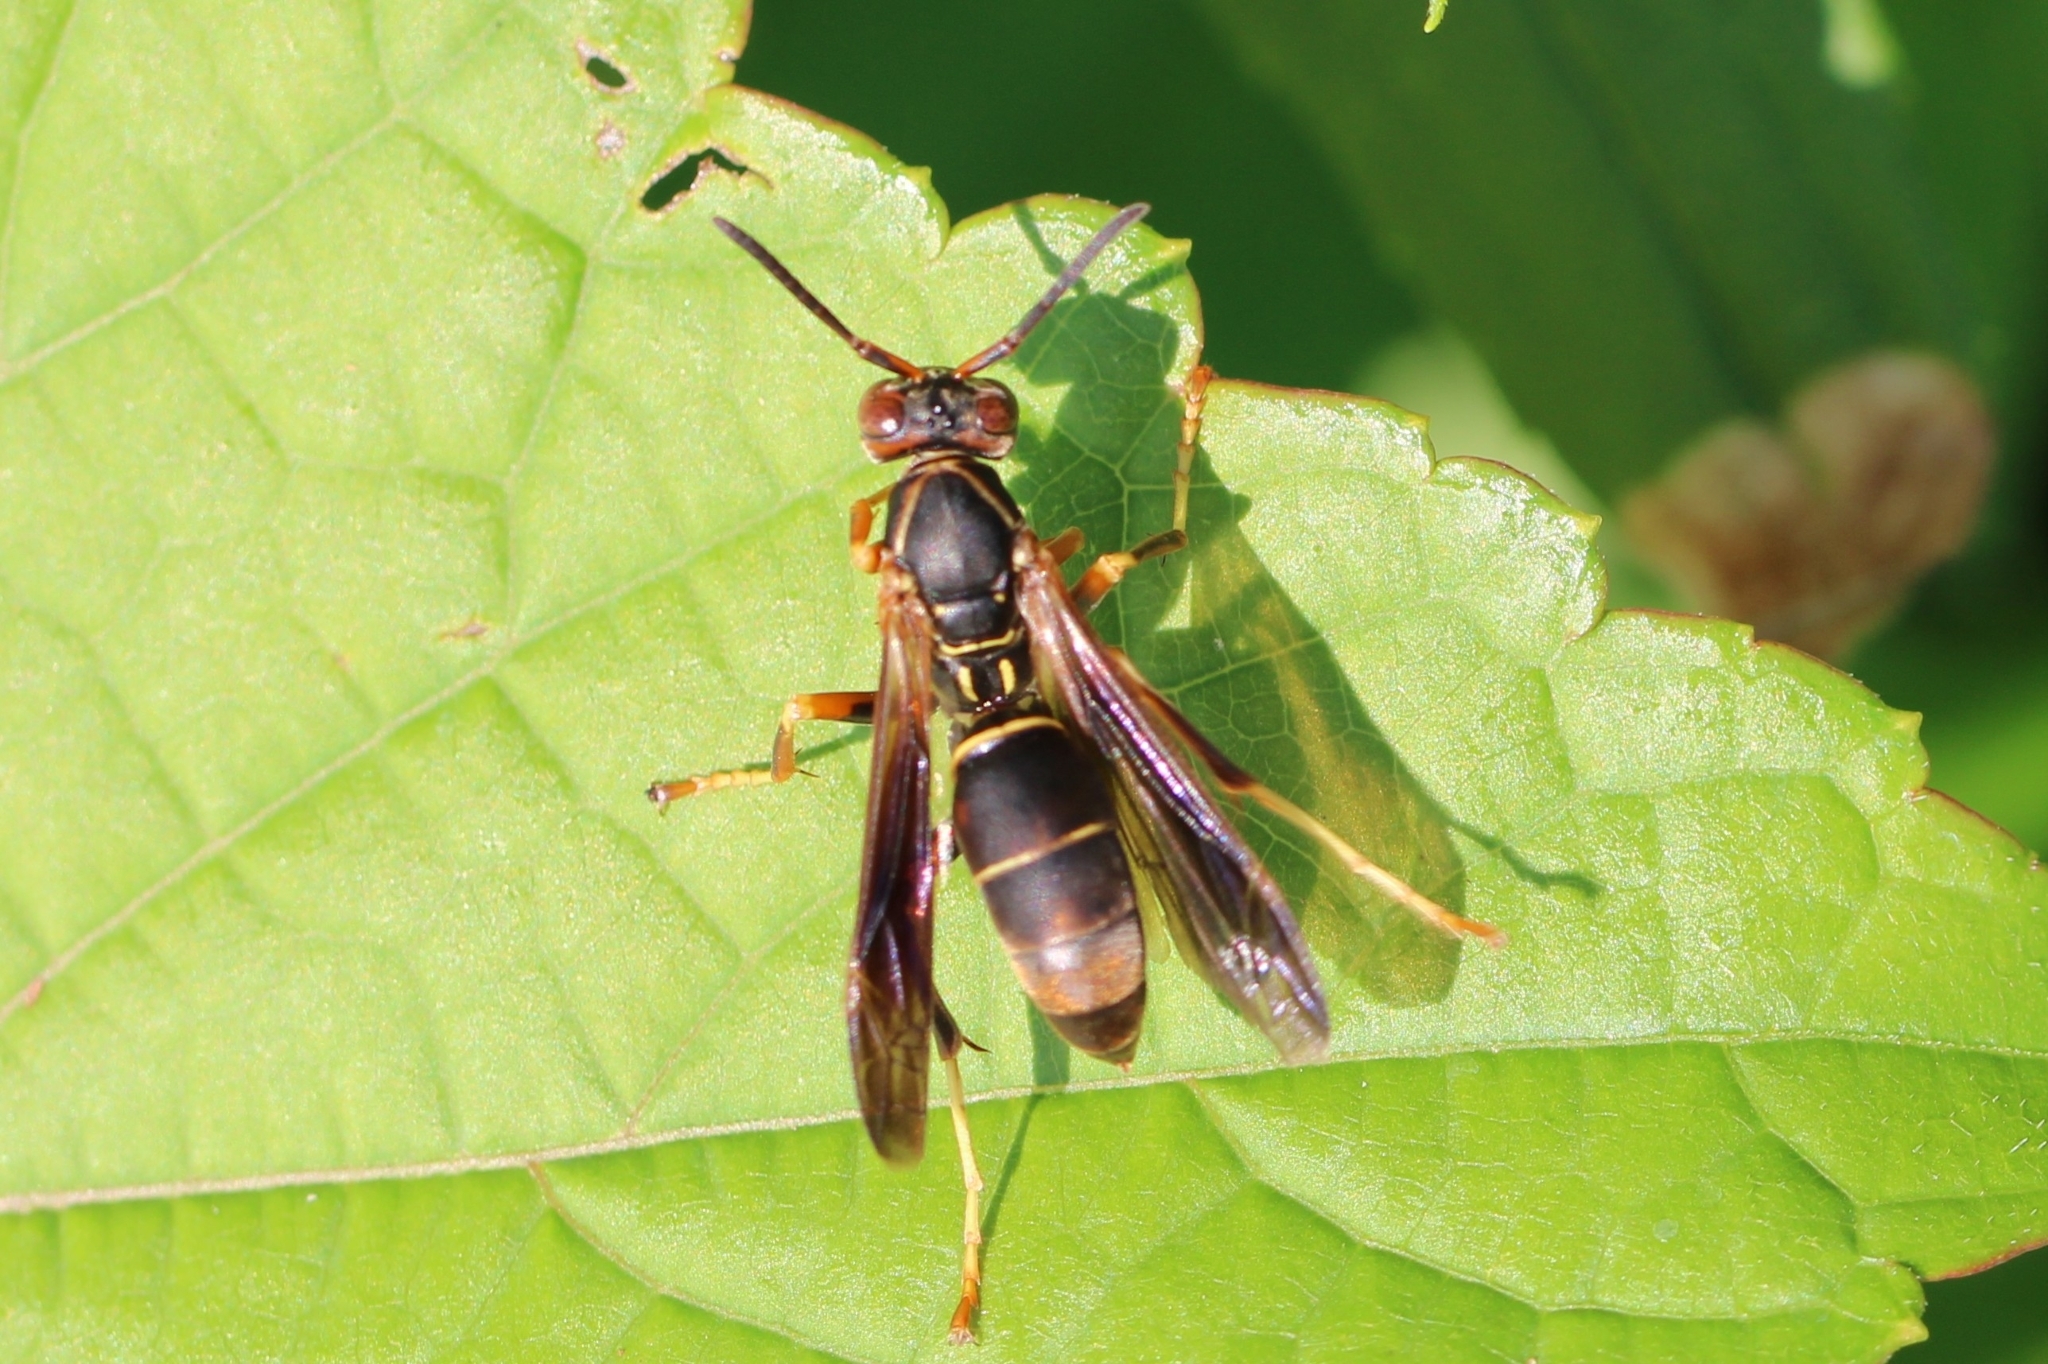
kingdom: Animalia
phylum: Arthropoda
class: Insecta
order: Hymenoptera
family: Eumenidae
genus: Polistes
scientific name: Polistes fuscatus
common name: Dark paper wasp
